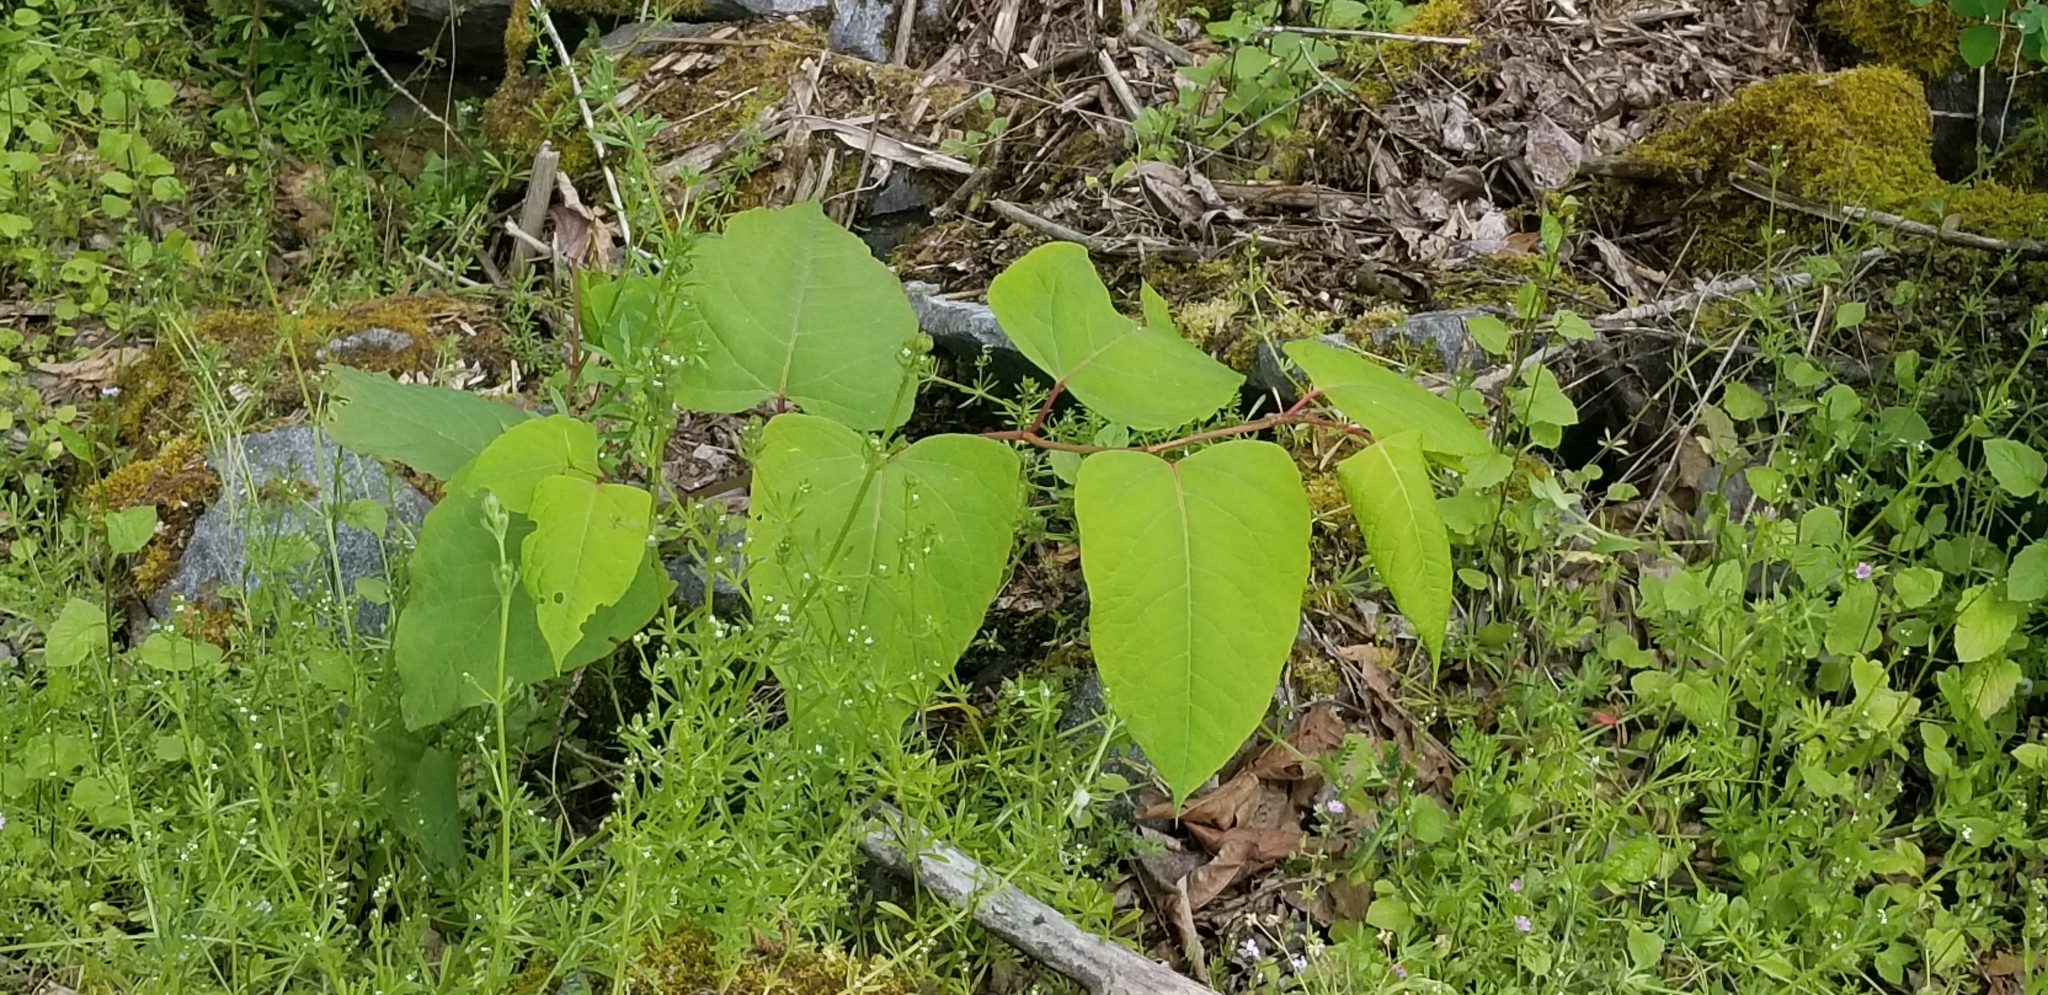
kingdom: Plantae
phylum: Tracheophyta
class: Magnoliopsida
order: Caryophyllales
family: Polygonaceae
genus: Reynoutria
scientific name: Reynoutria bohemica
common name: Bohemian knotweed
